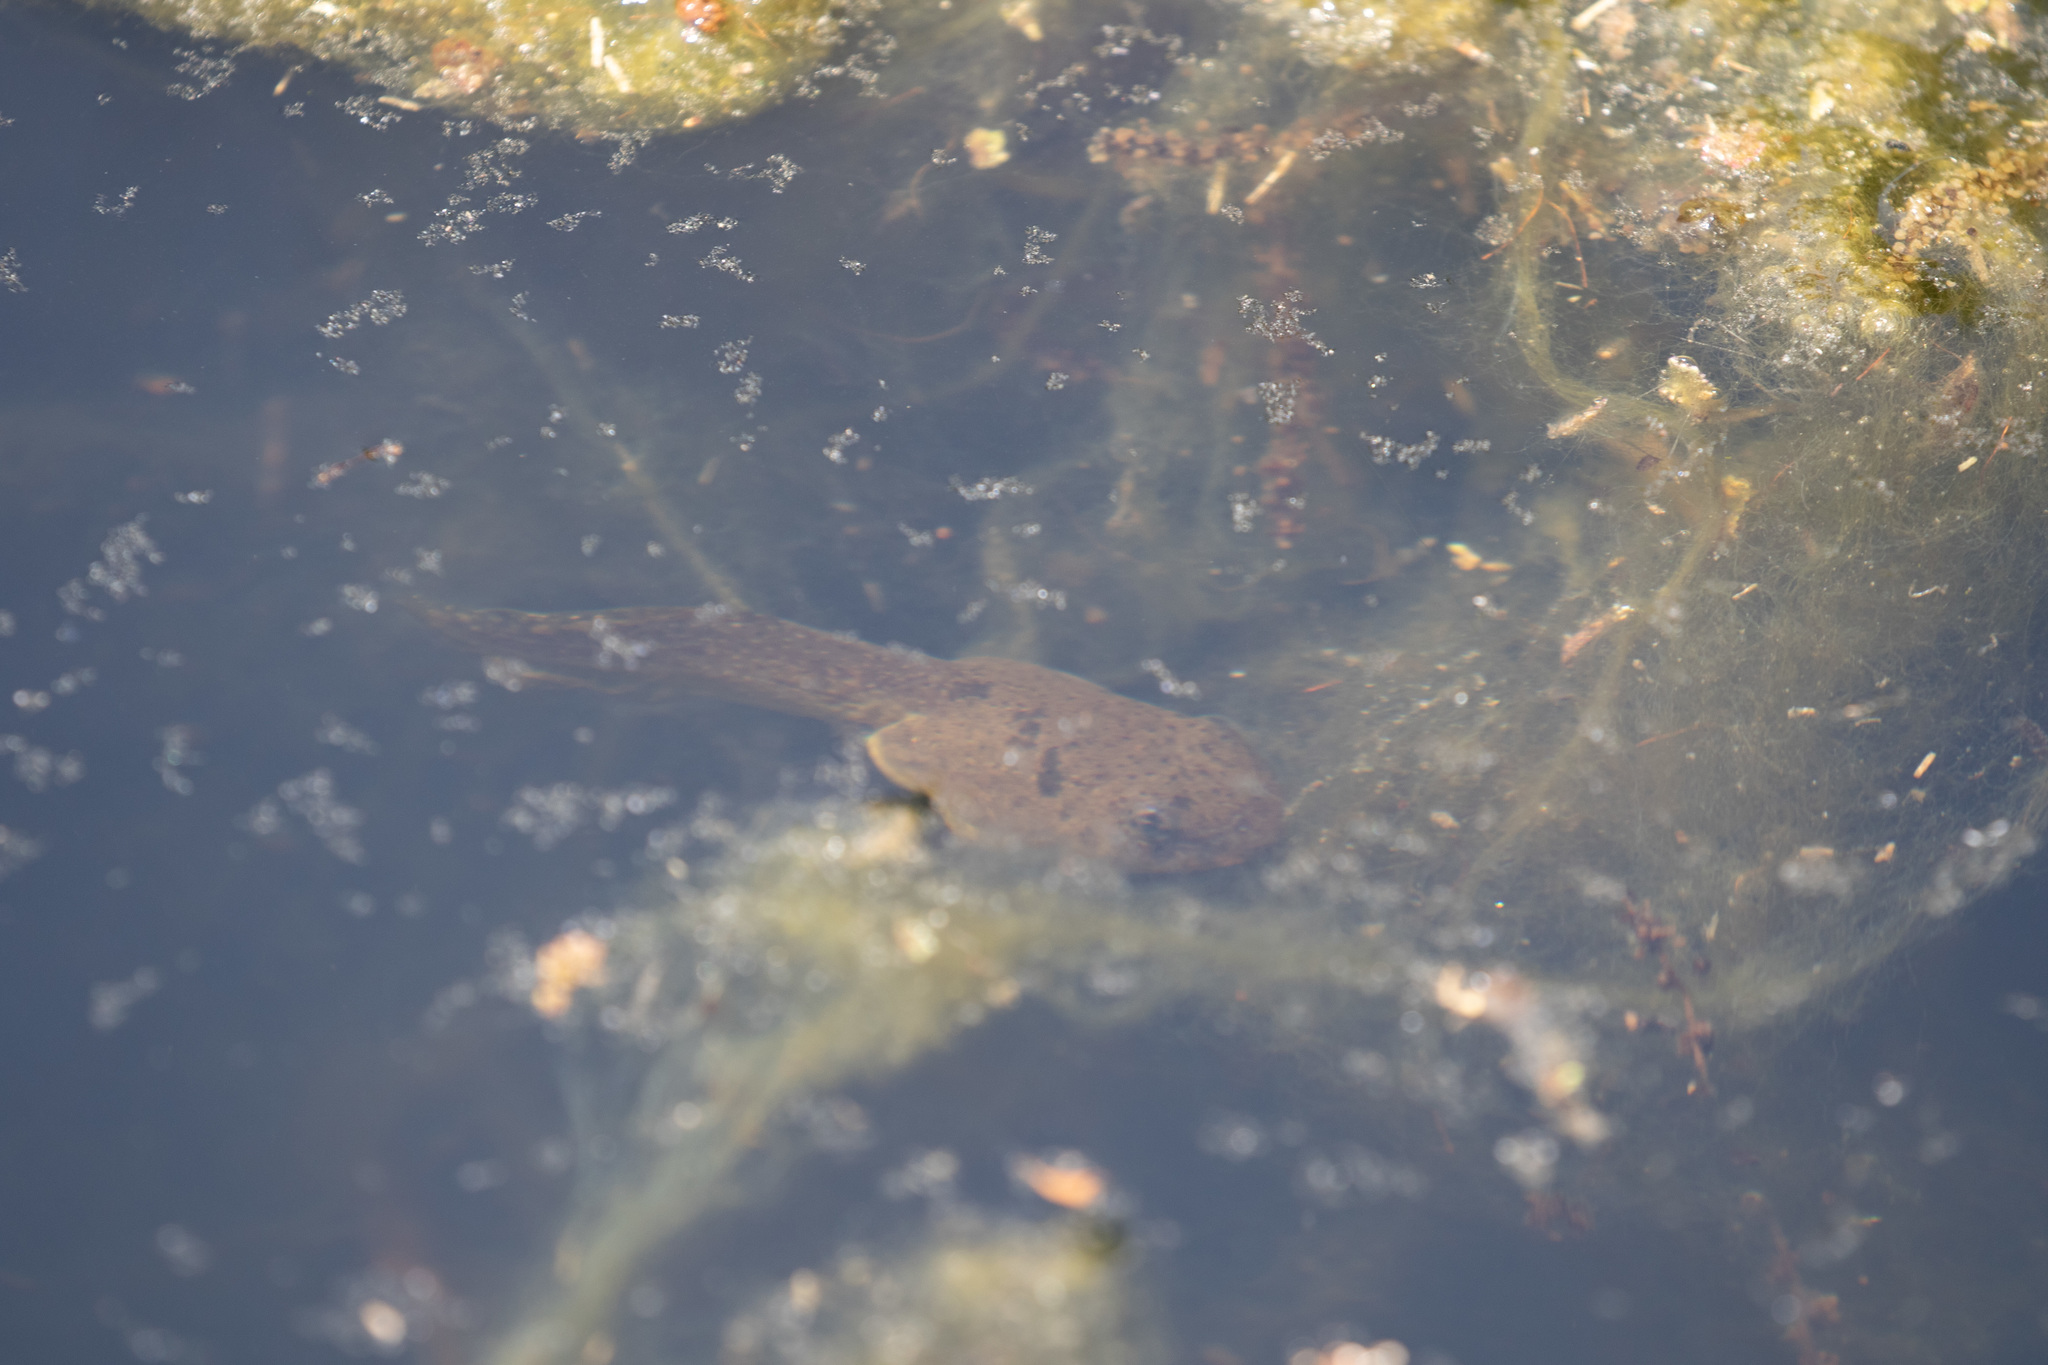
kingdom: Animalia
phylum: Chordata
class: Amphibia
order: Anura
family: Ranidae
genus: Lithobates
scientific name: Lithobates catesbeianus
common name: American bullfrog
